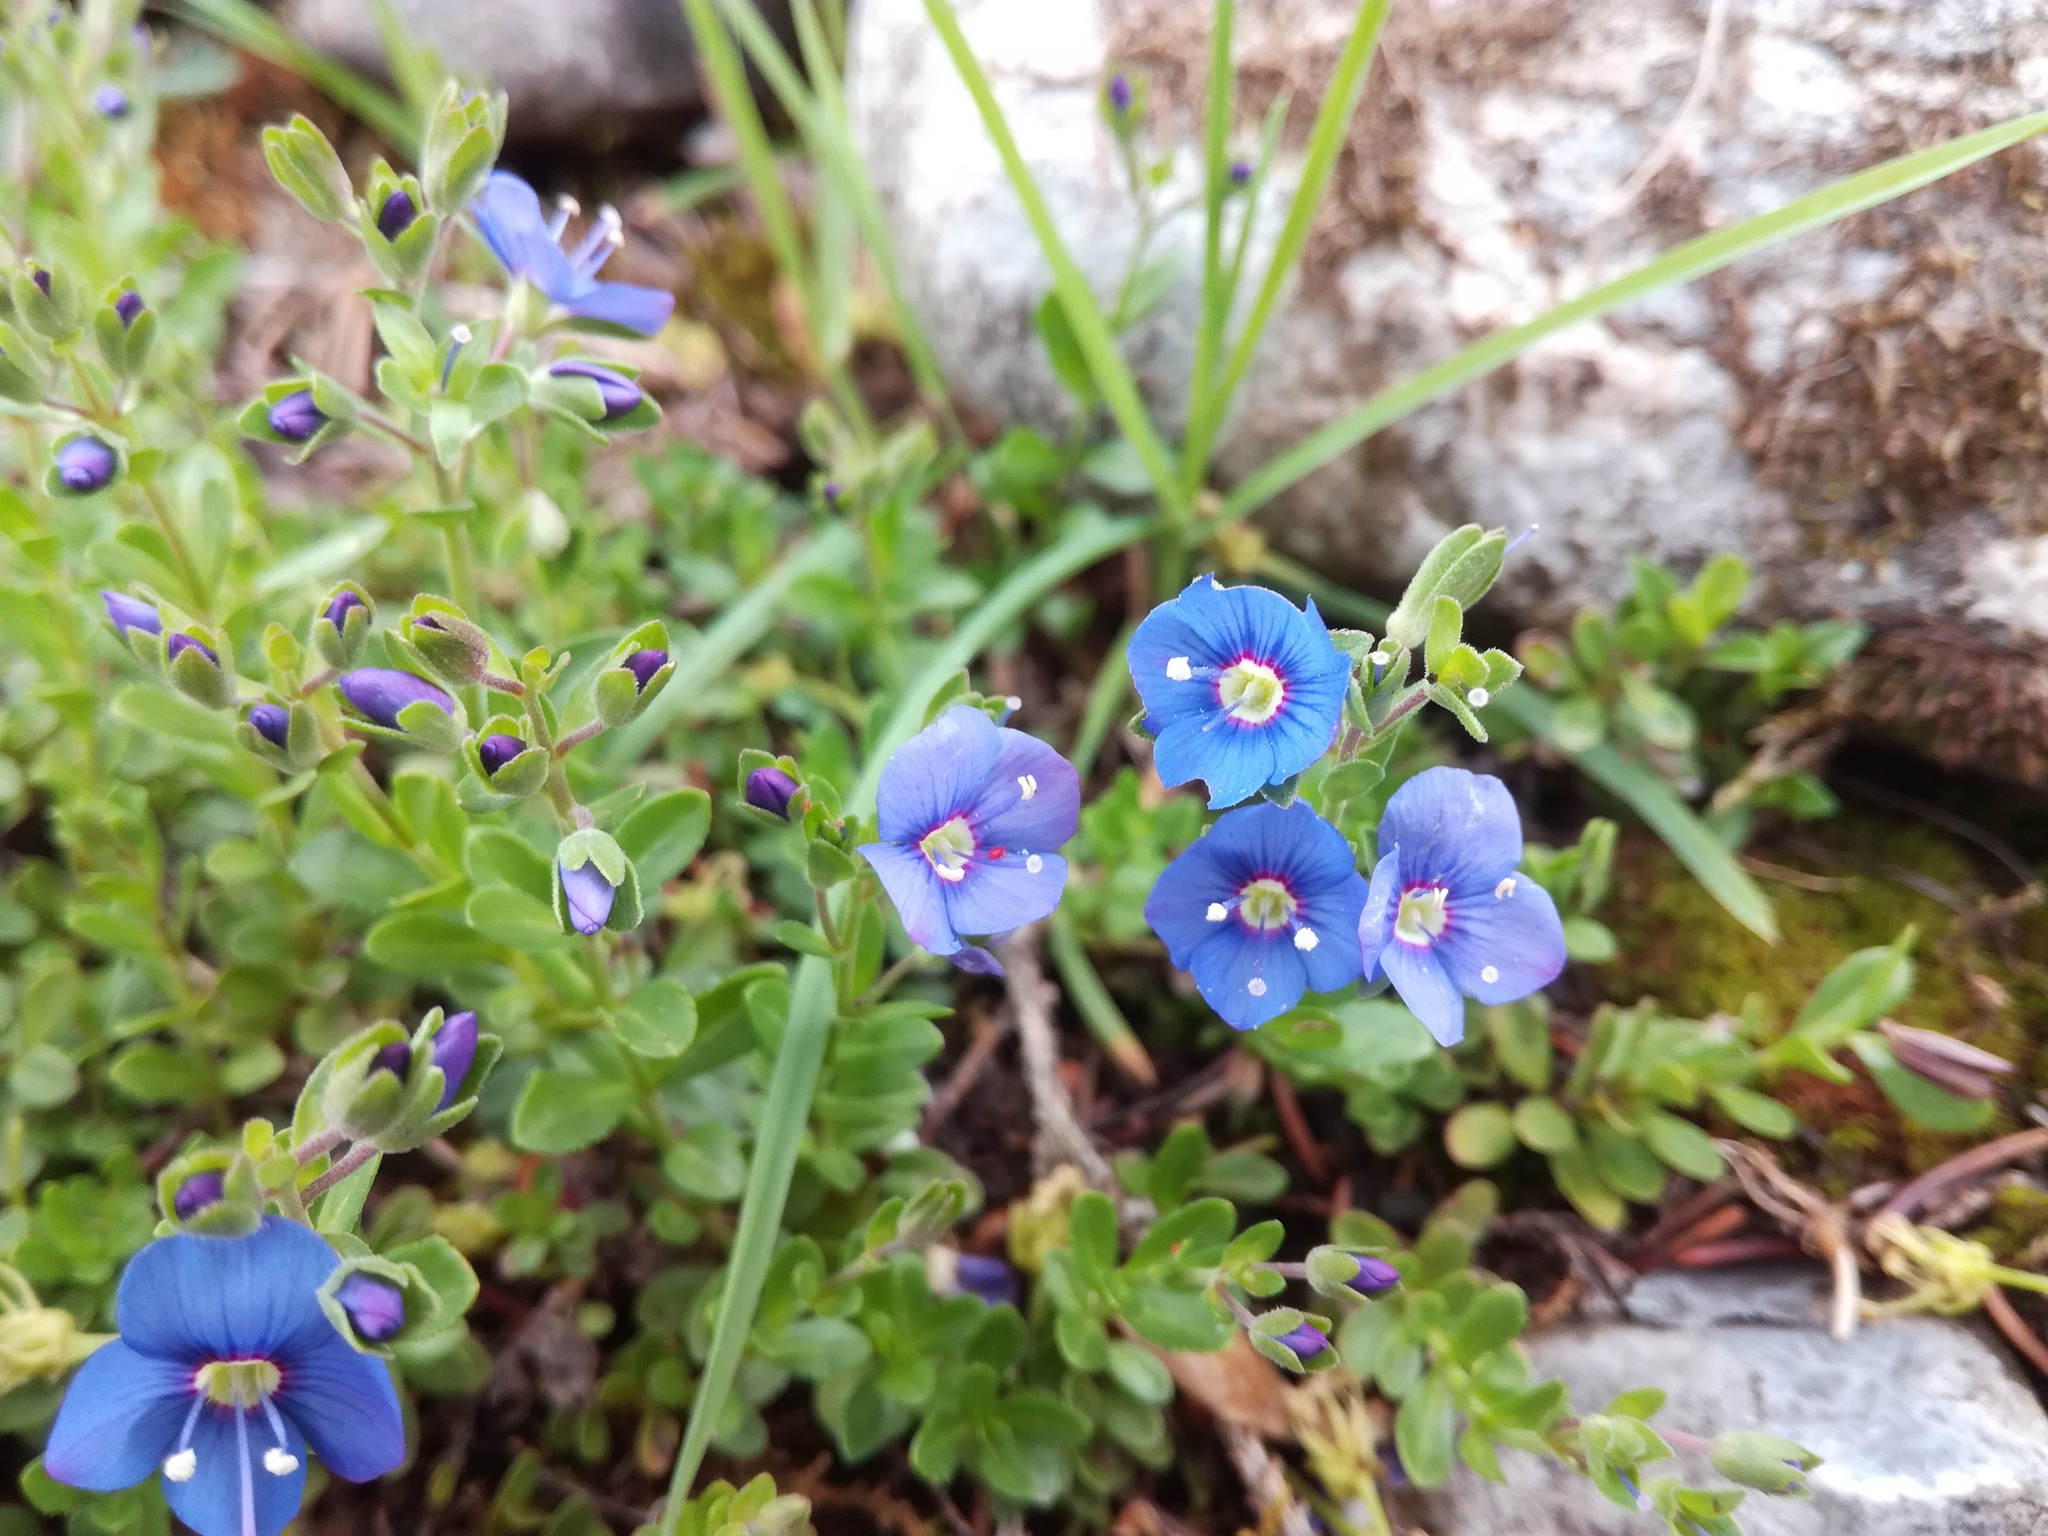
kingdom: Plantae
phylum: Tracheophyta
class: Magnoliopsida
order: Lamiales
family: Plantaginaceae
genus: Veronica
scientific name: Veronica fruticans
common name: Rock speedwell
